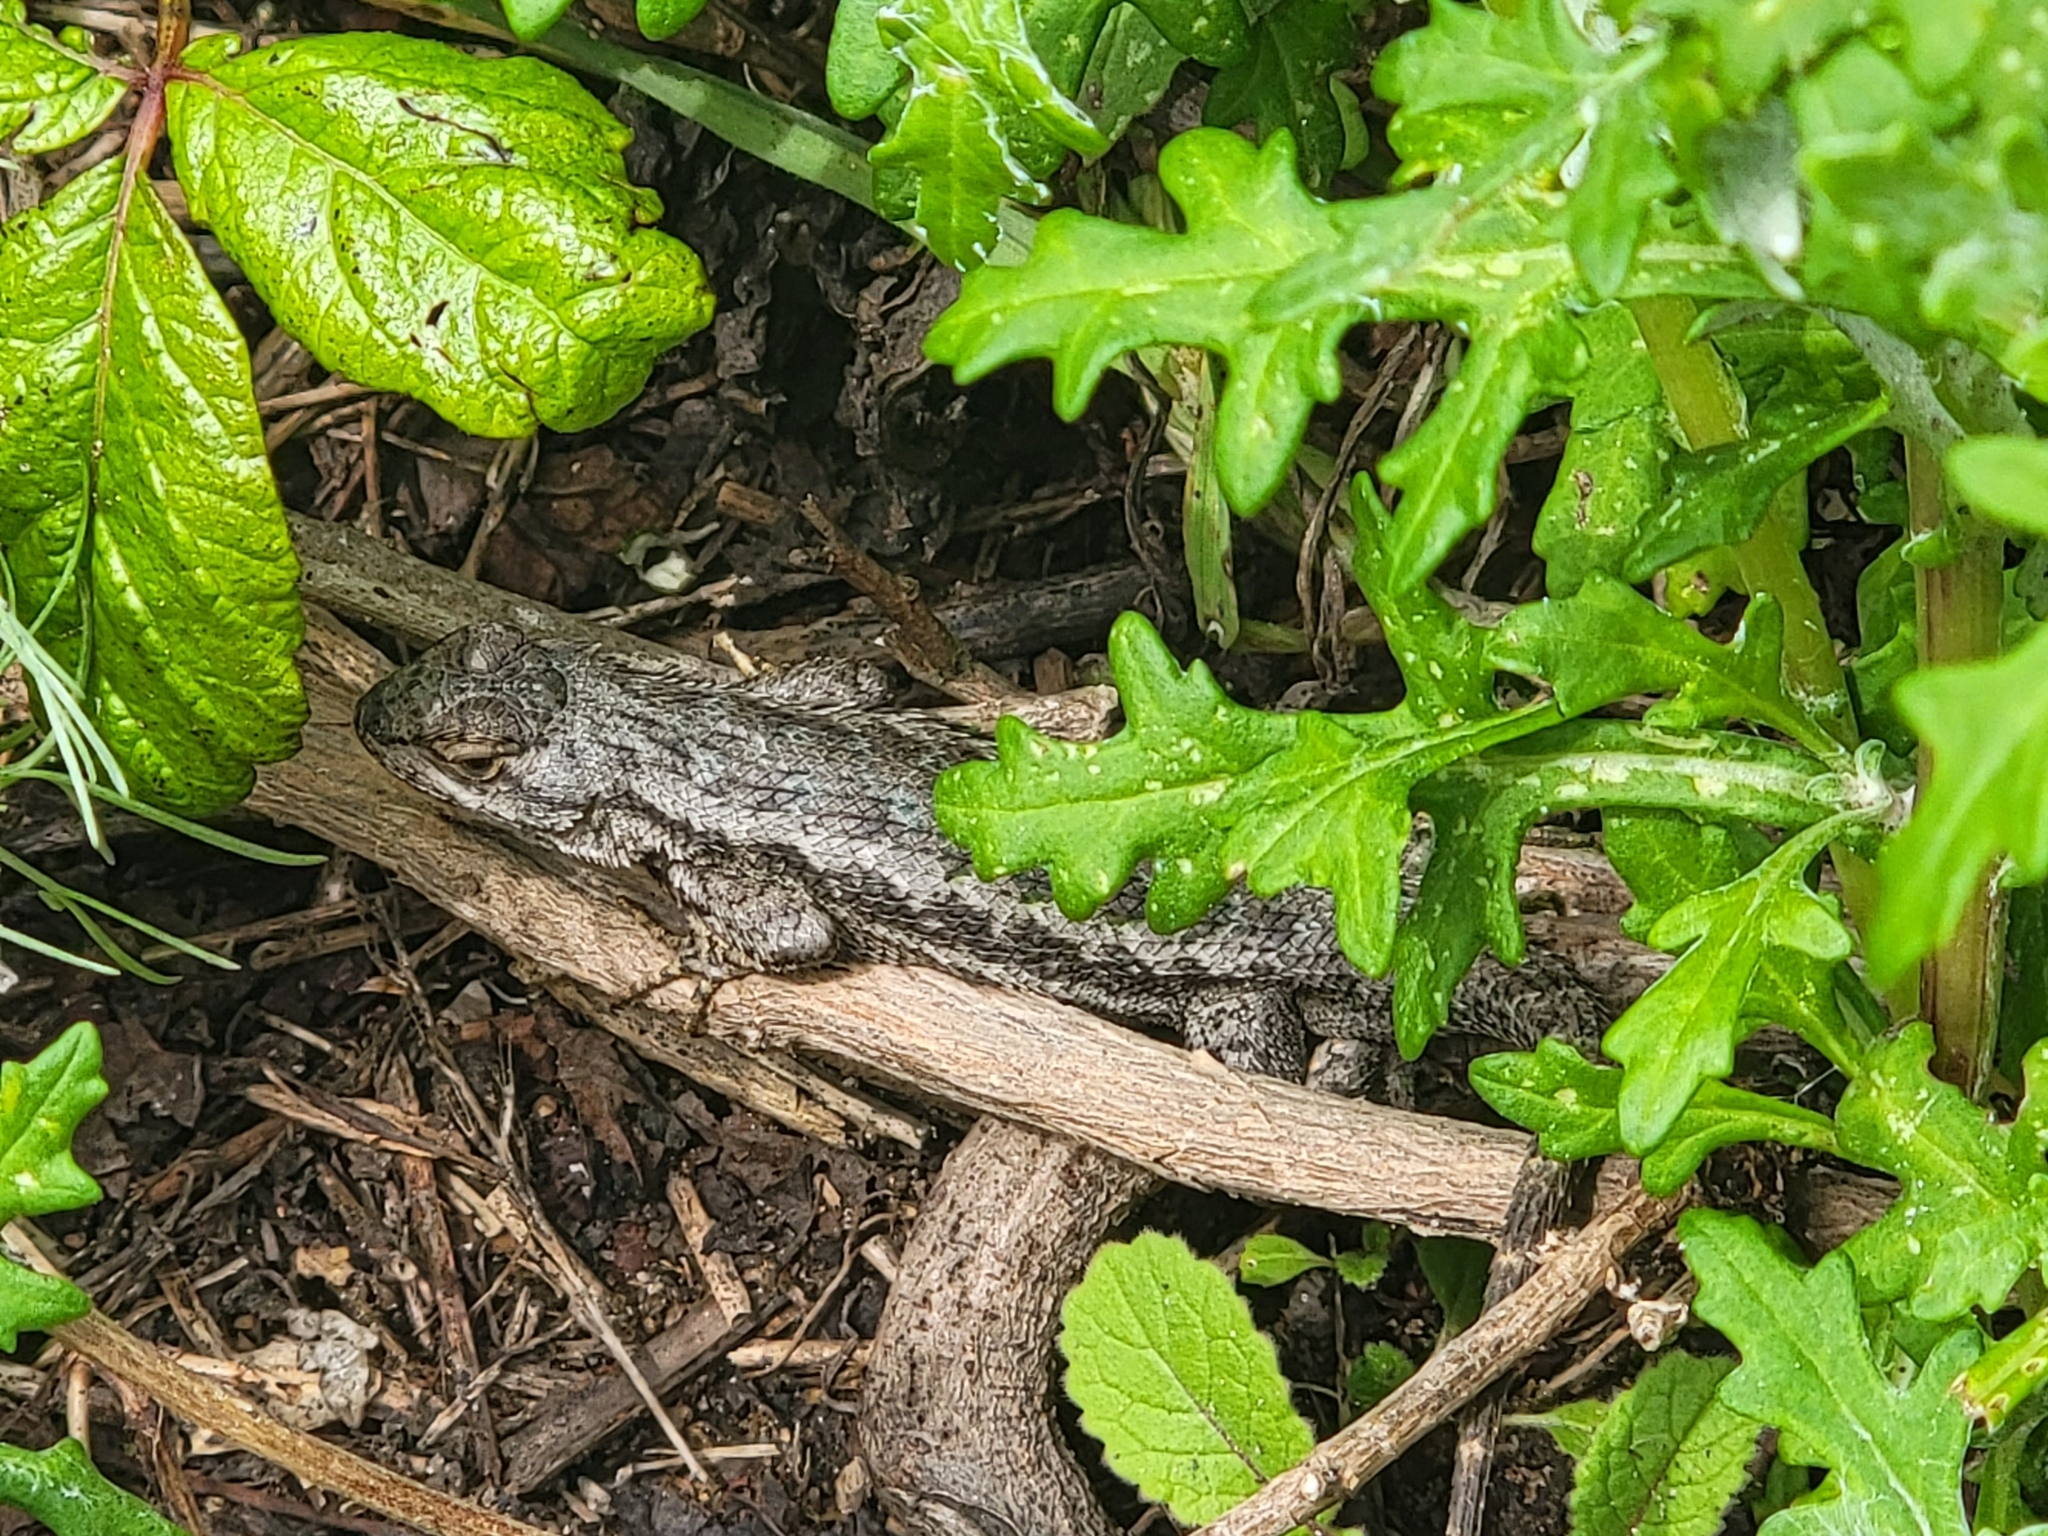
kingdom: Animalia
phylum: Chordata
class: Squamata
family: Phrynosomatidae
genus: Sceloporus
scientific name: Sceloporus occidentalis
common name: Western fence lizard
